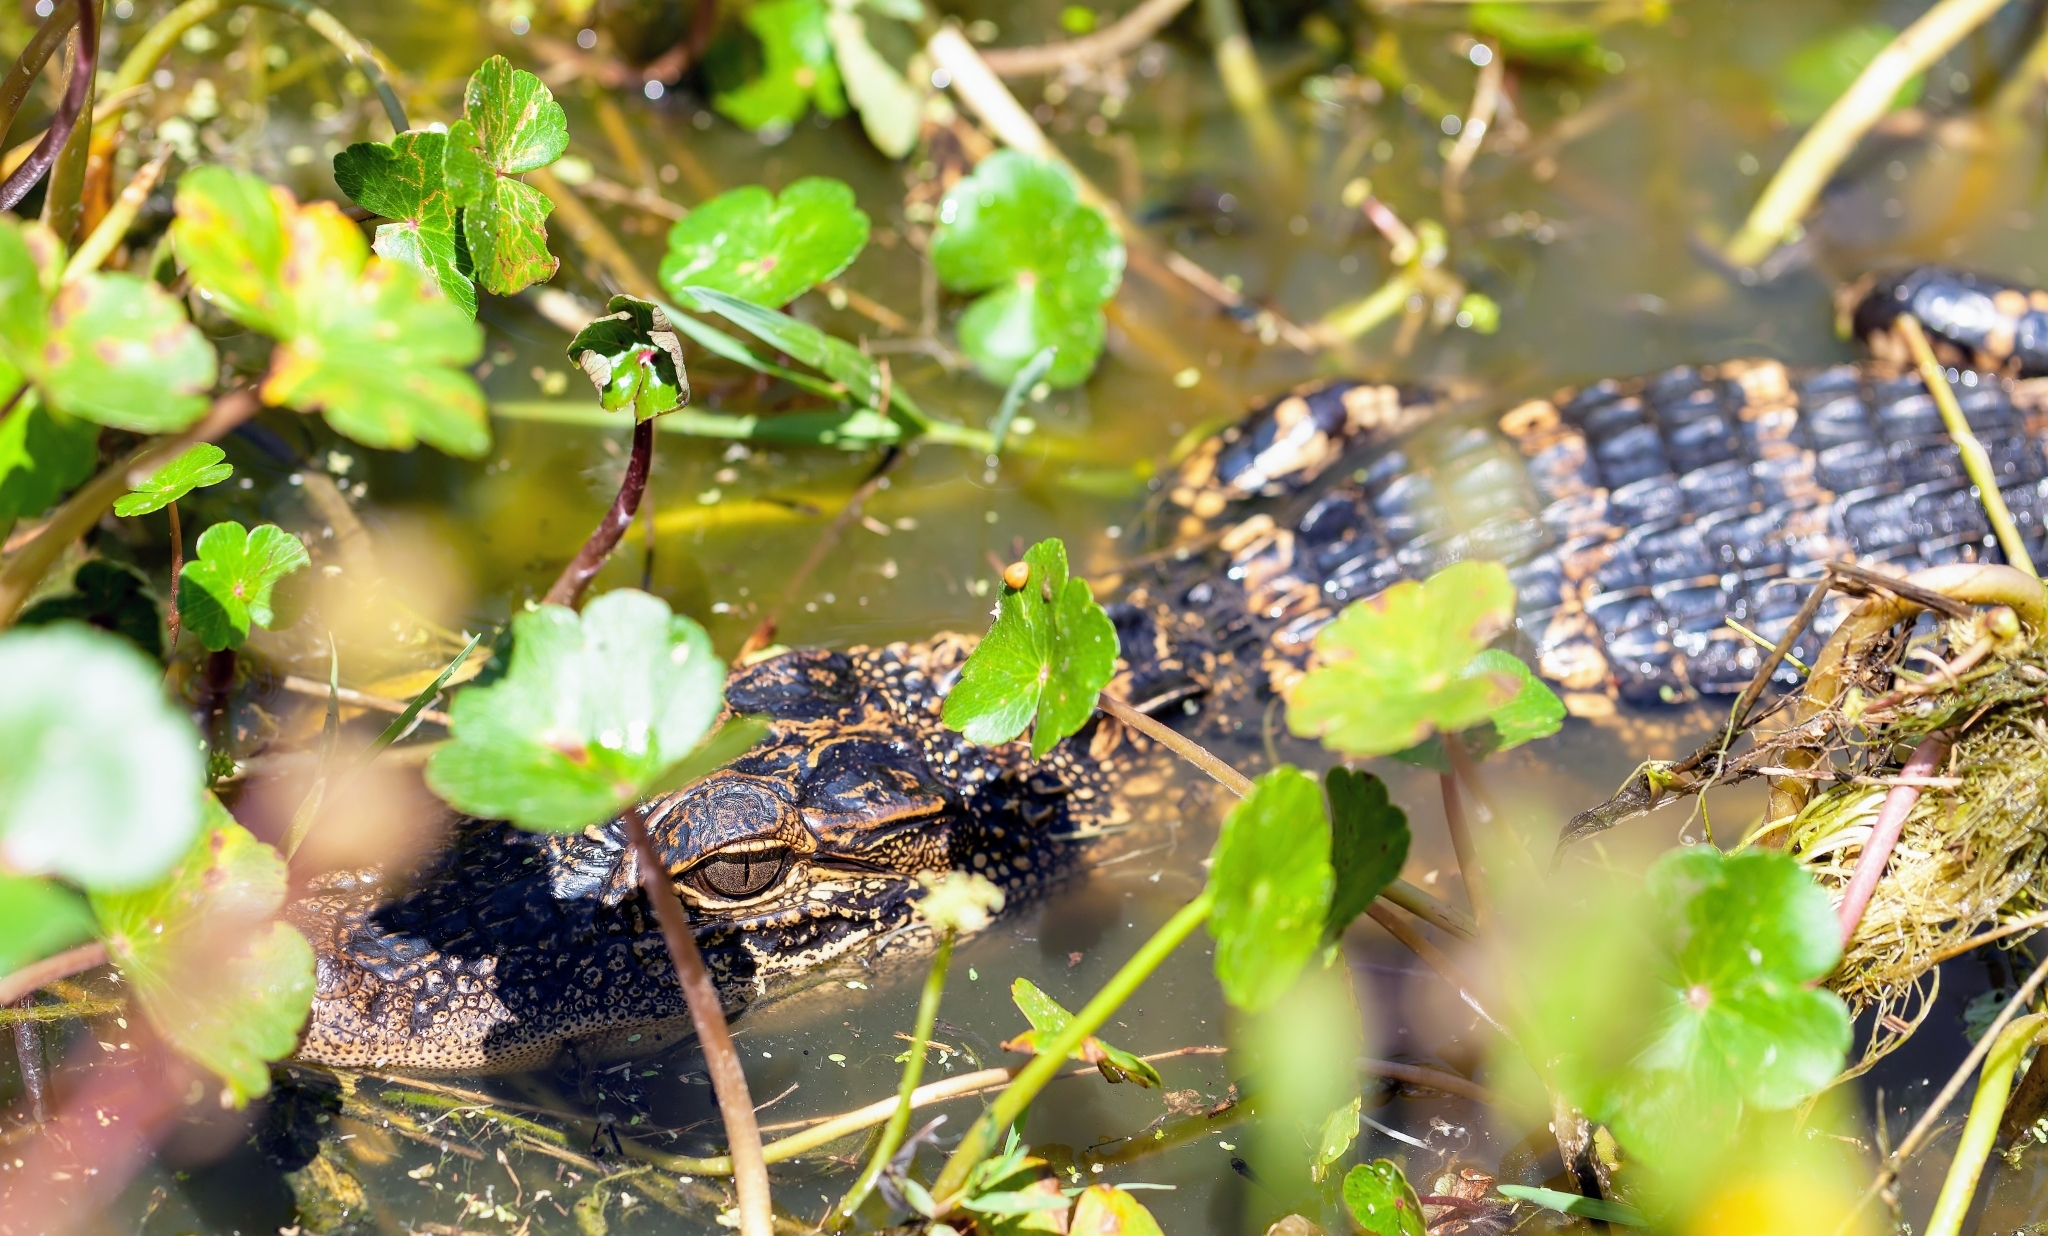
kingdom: Animalia
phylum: Chordata
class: Crocodylia
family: Alligatoridae
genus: Alligator
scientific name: Alligator mississippiensis
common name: American alligator
